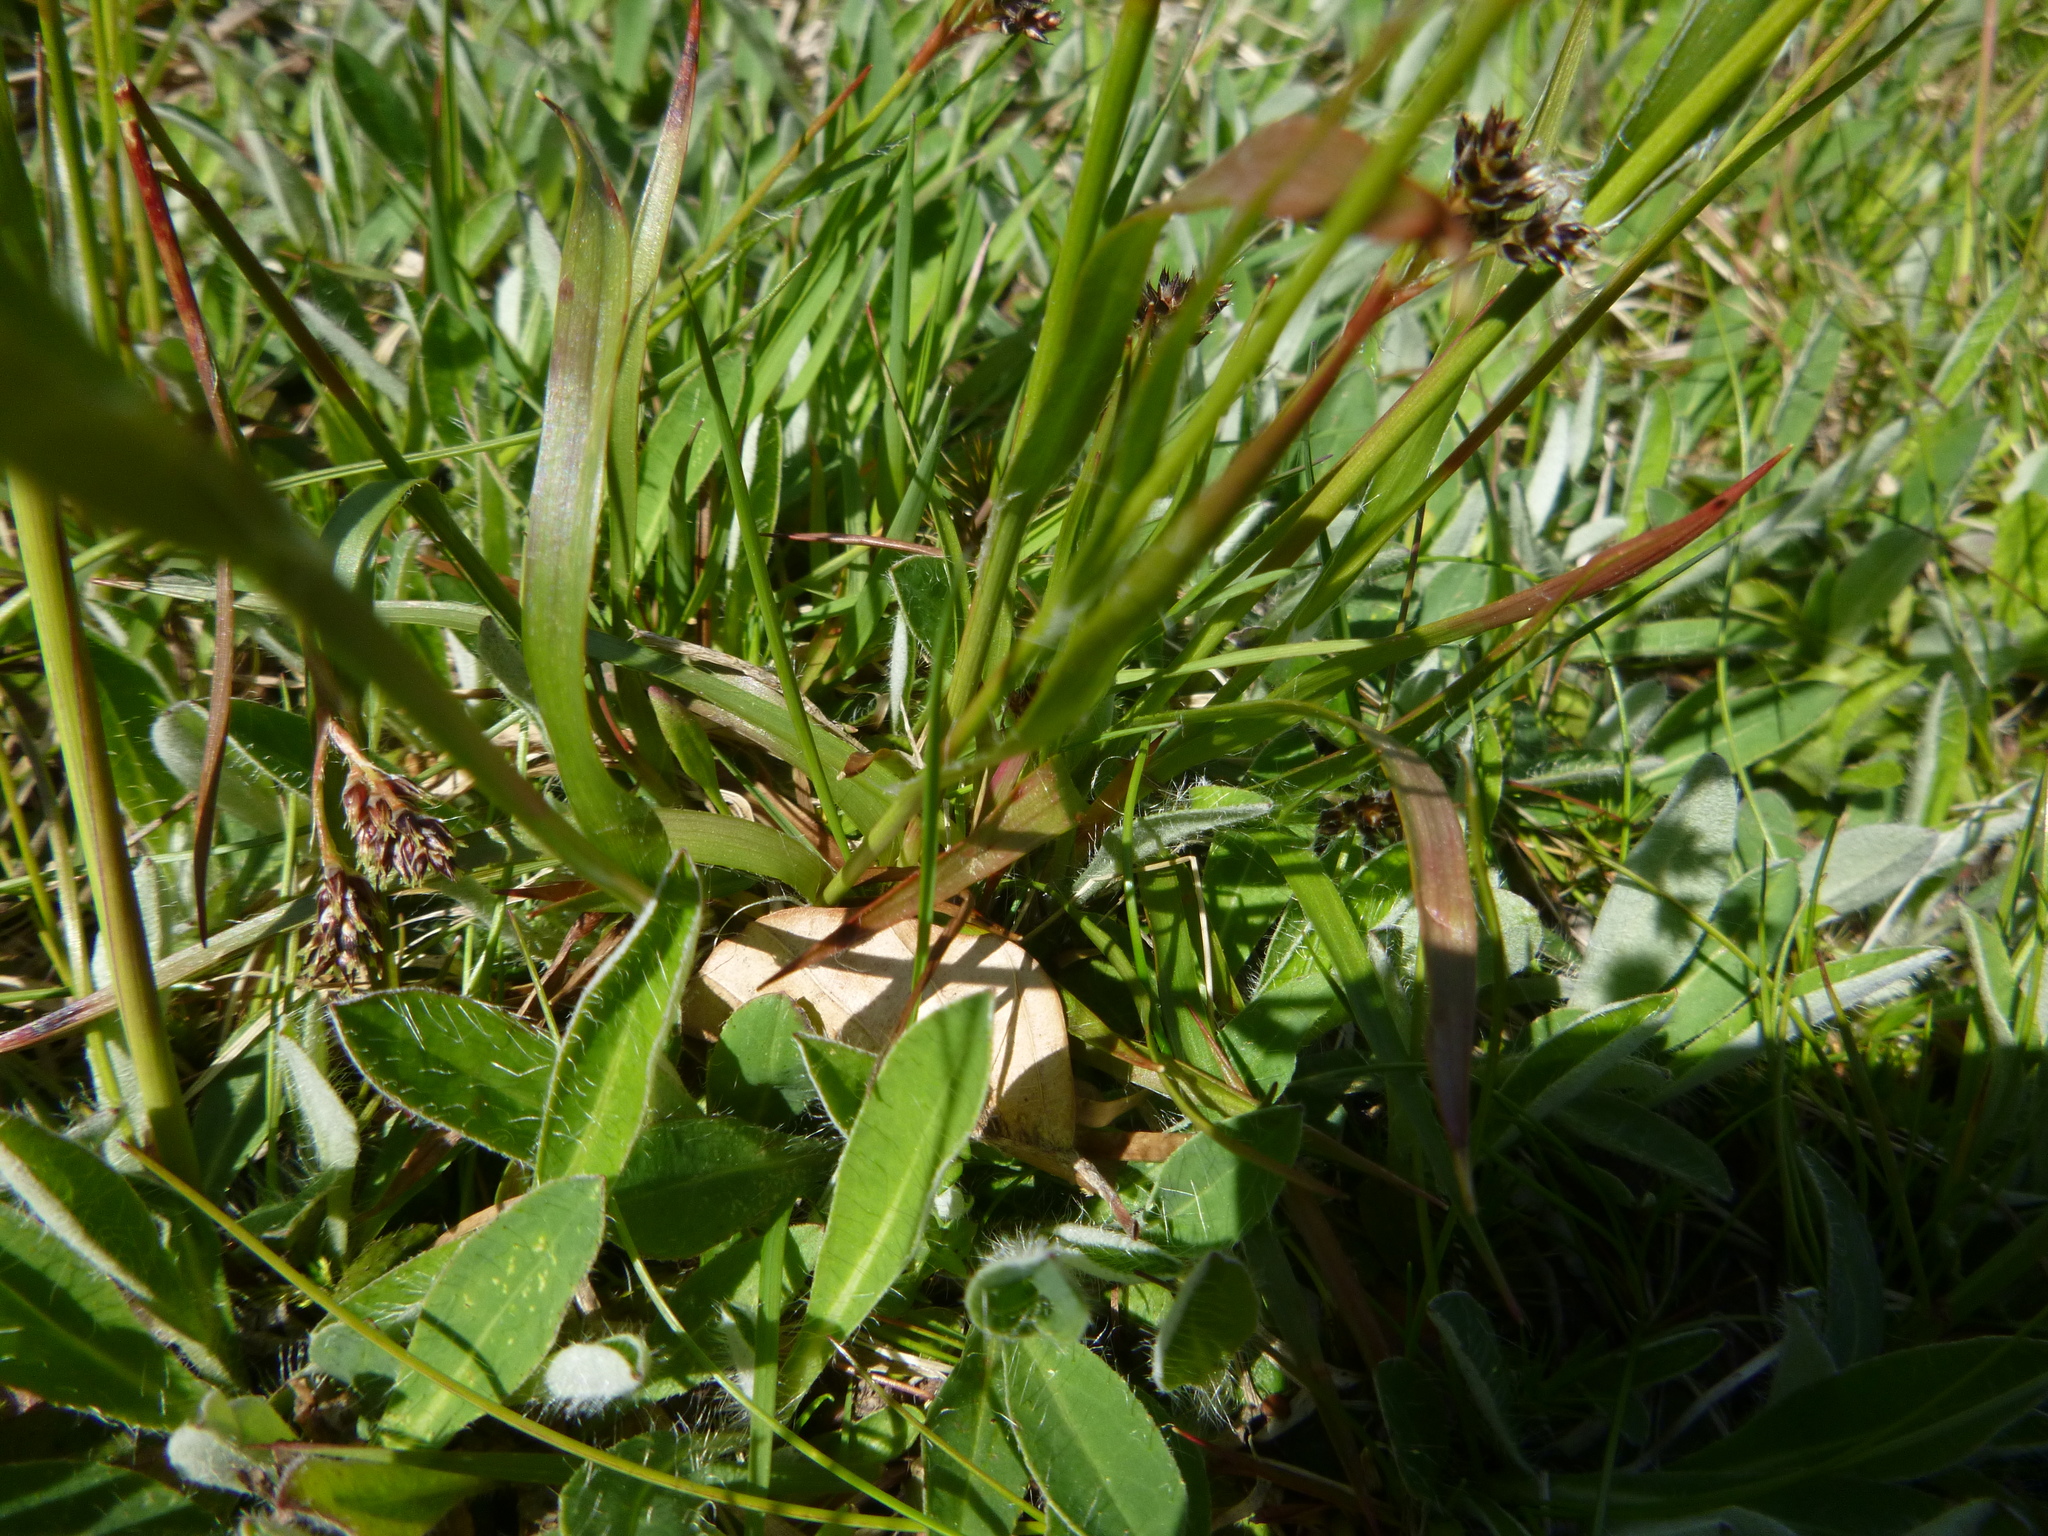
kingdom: Plantae
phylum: Tracheophyta
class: Liliopsida
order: Poales
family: Juncaceae
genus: Luzula
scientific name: Luzula campestris
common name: Field wood-rush
